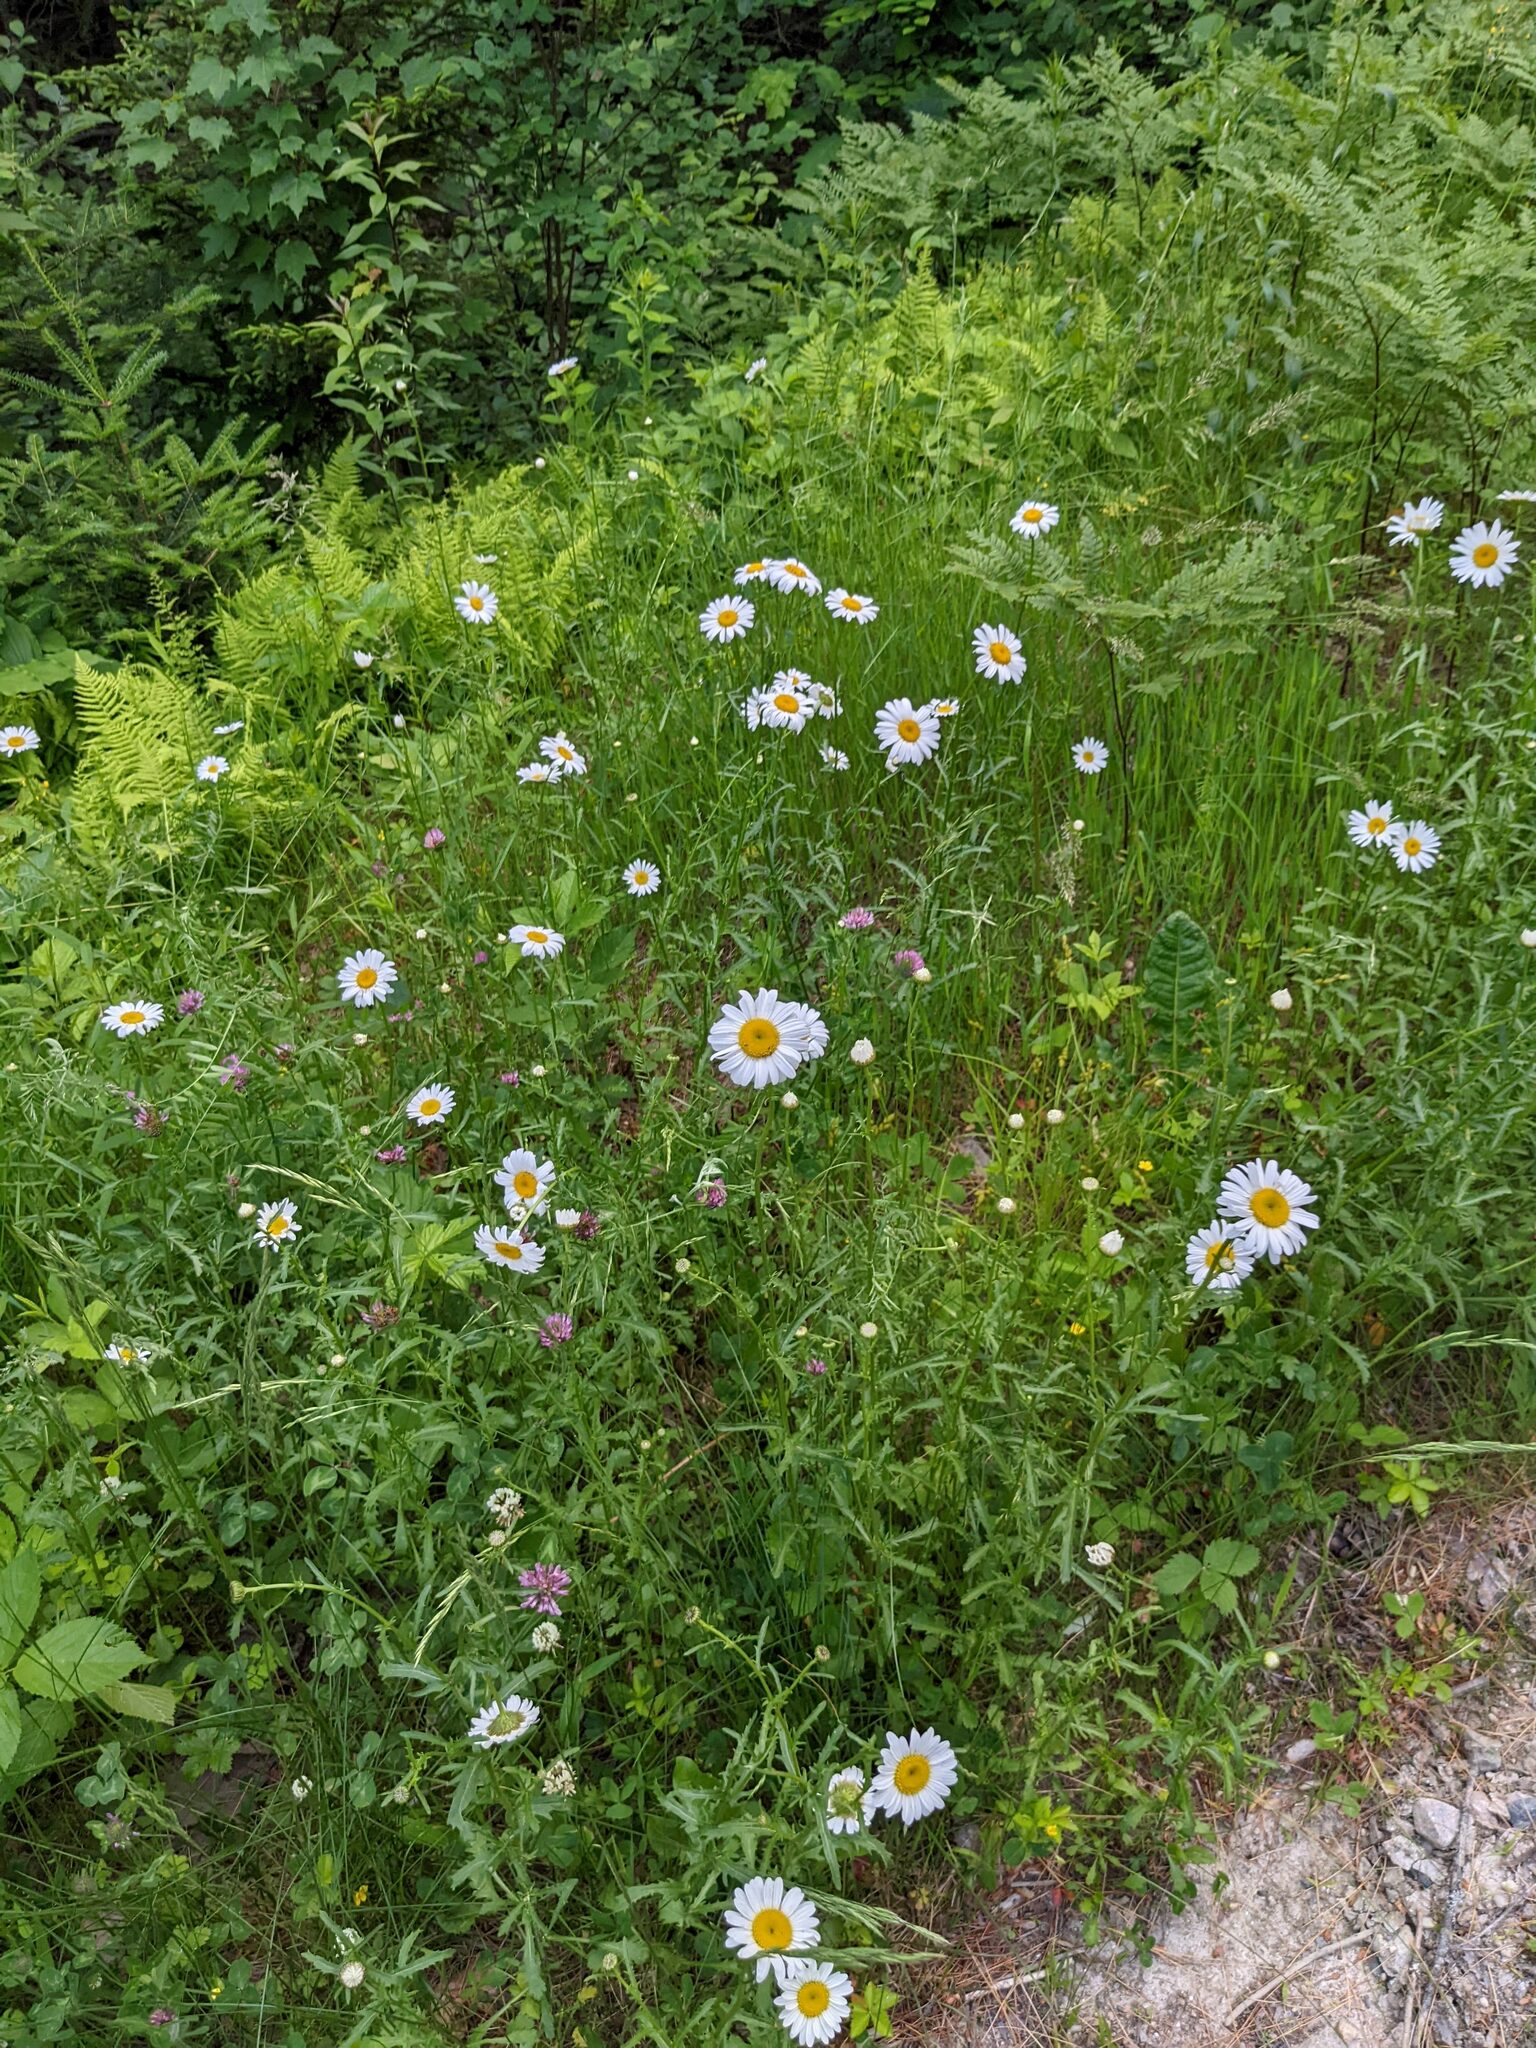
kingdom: Plantae
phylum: Tracheophyta
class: Magnoliopsida
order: Asterales
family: Asteraceae
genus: Leucanthemum
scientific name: Leucanthemum vulgare
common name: Oxeye daisy
